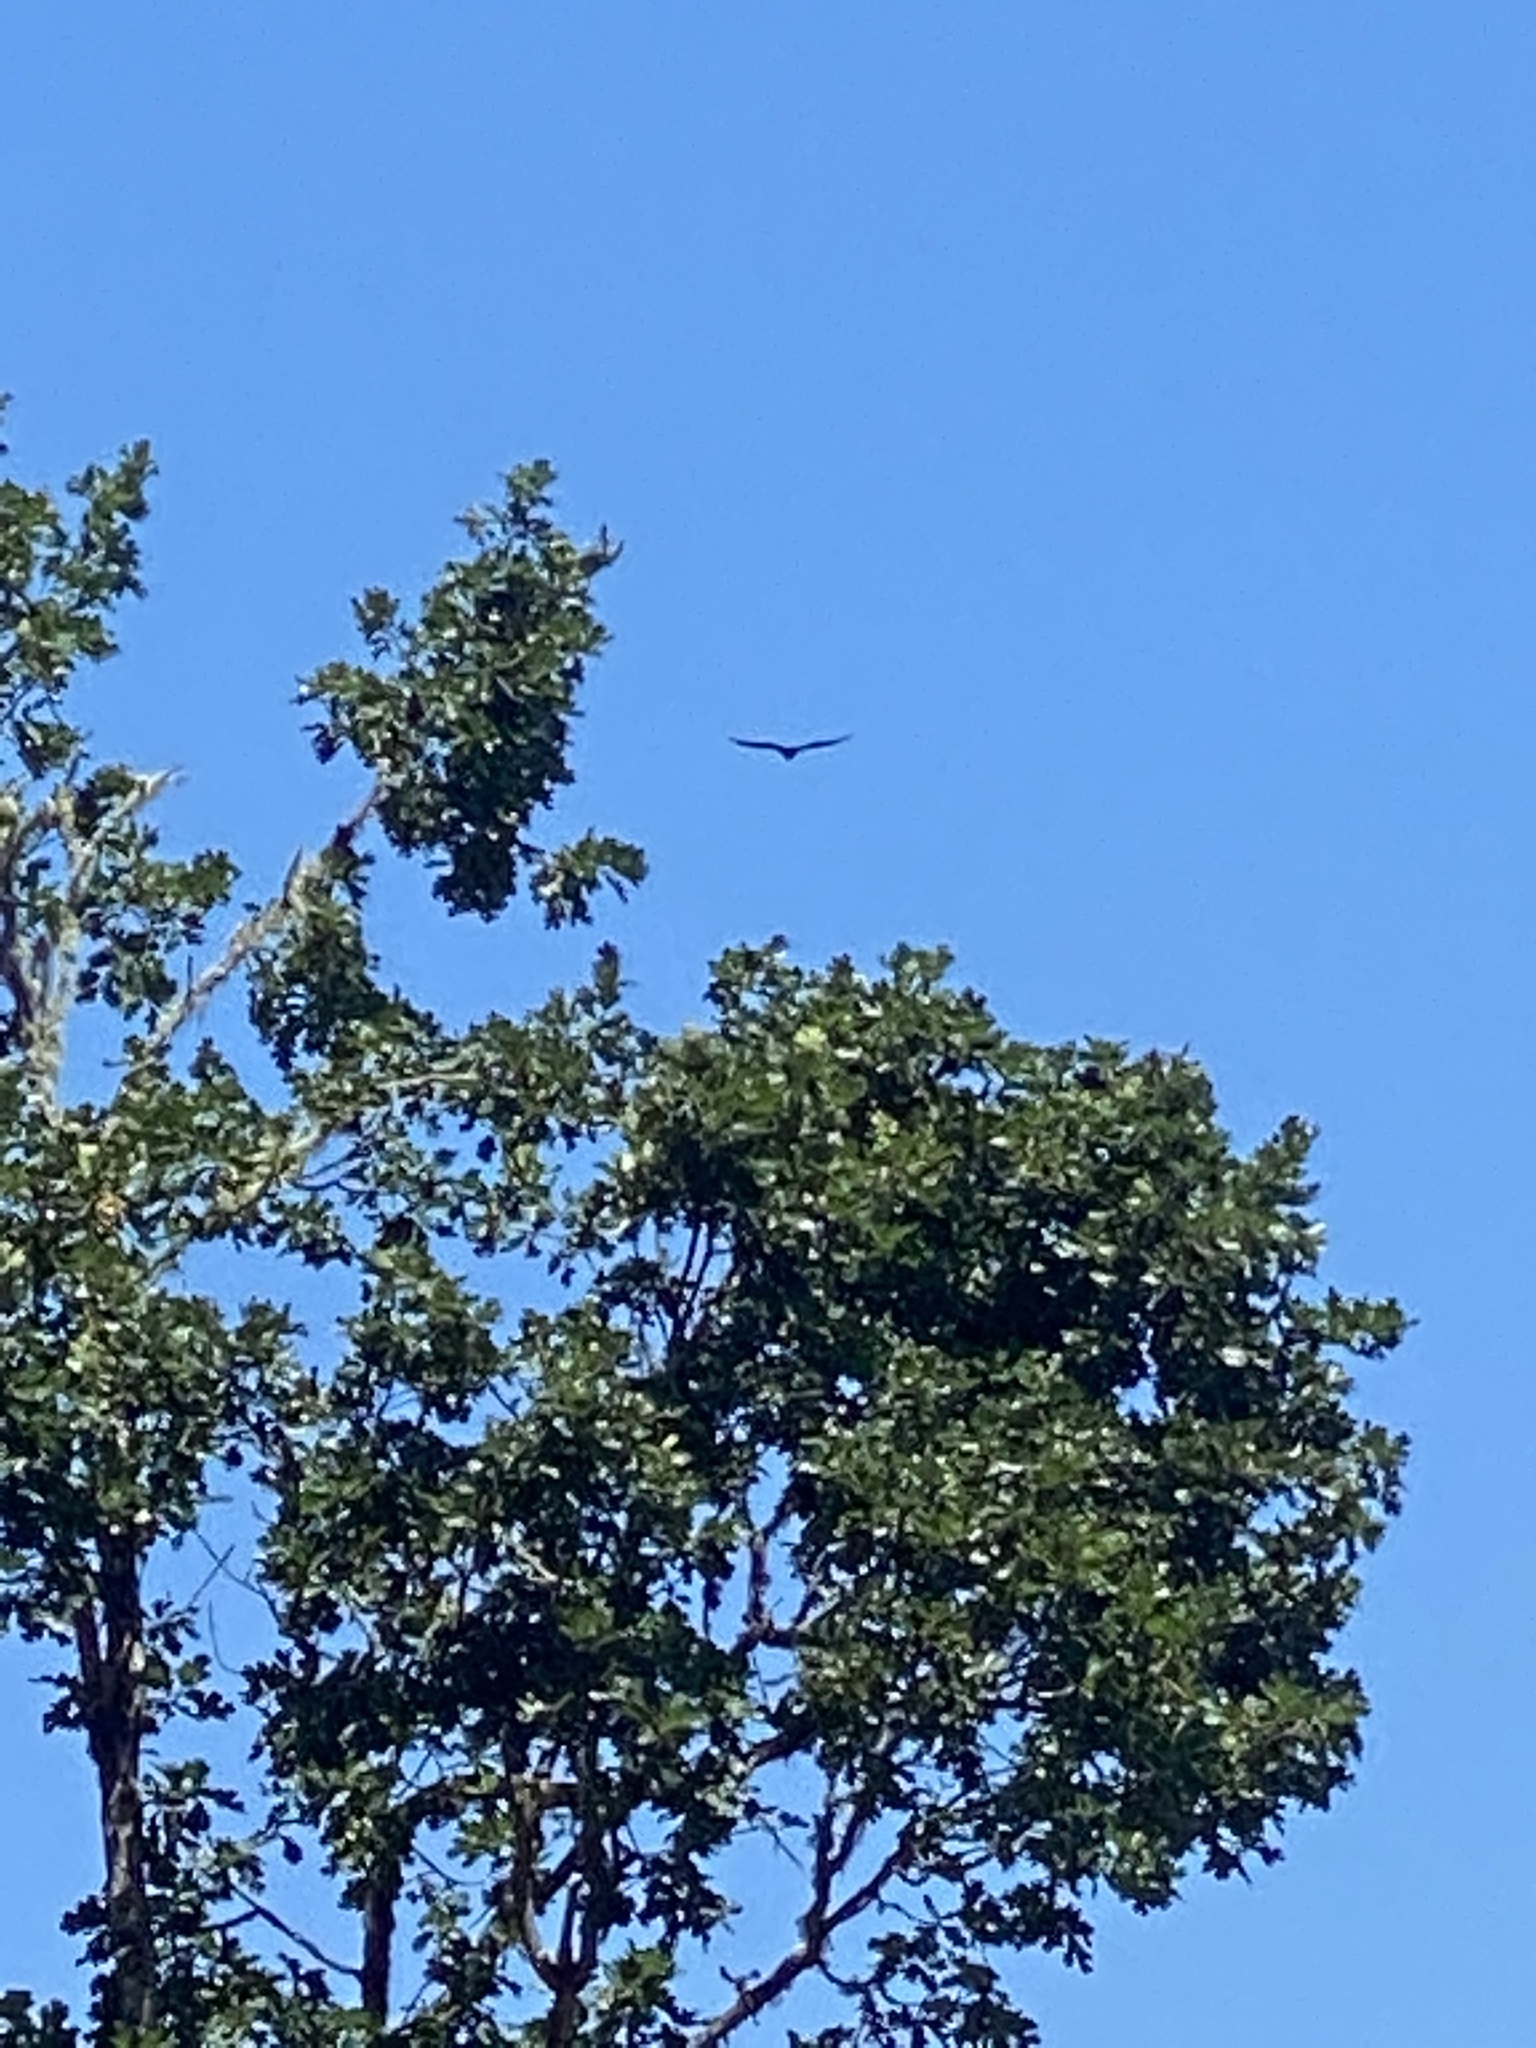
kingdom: Animalia
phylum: Chordata
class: Aves
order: Accipitriformes
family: Cathartidae
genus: Cathartes
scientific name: Cathartes aura
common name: Turkey vulture
